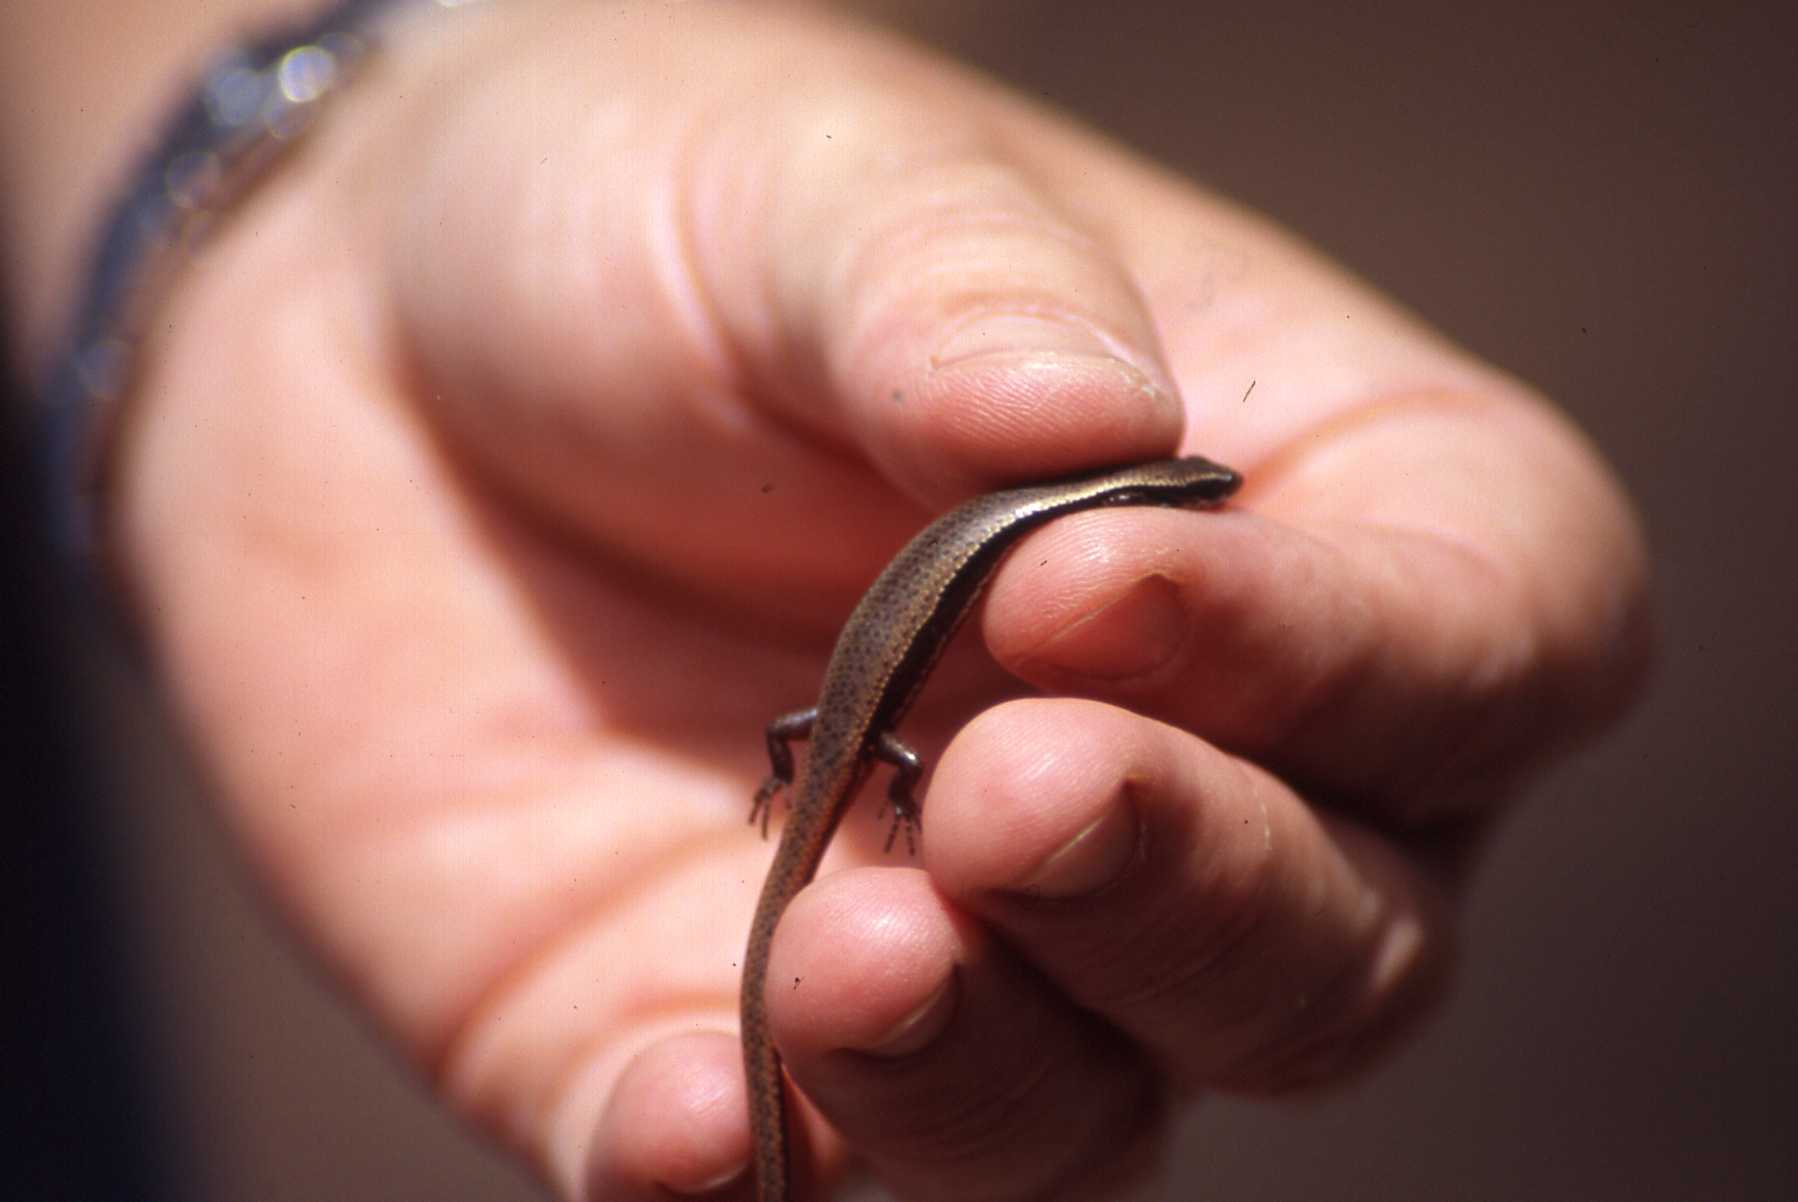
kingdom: Animalia
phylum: Chordata
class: Squamata
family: Scincidae
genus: Panaspis
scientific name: Panaspis wahlbergii
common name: Angolan snake-eyed skink
